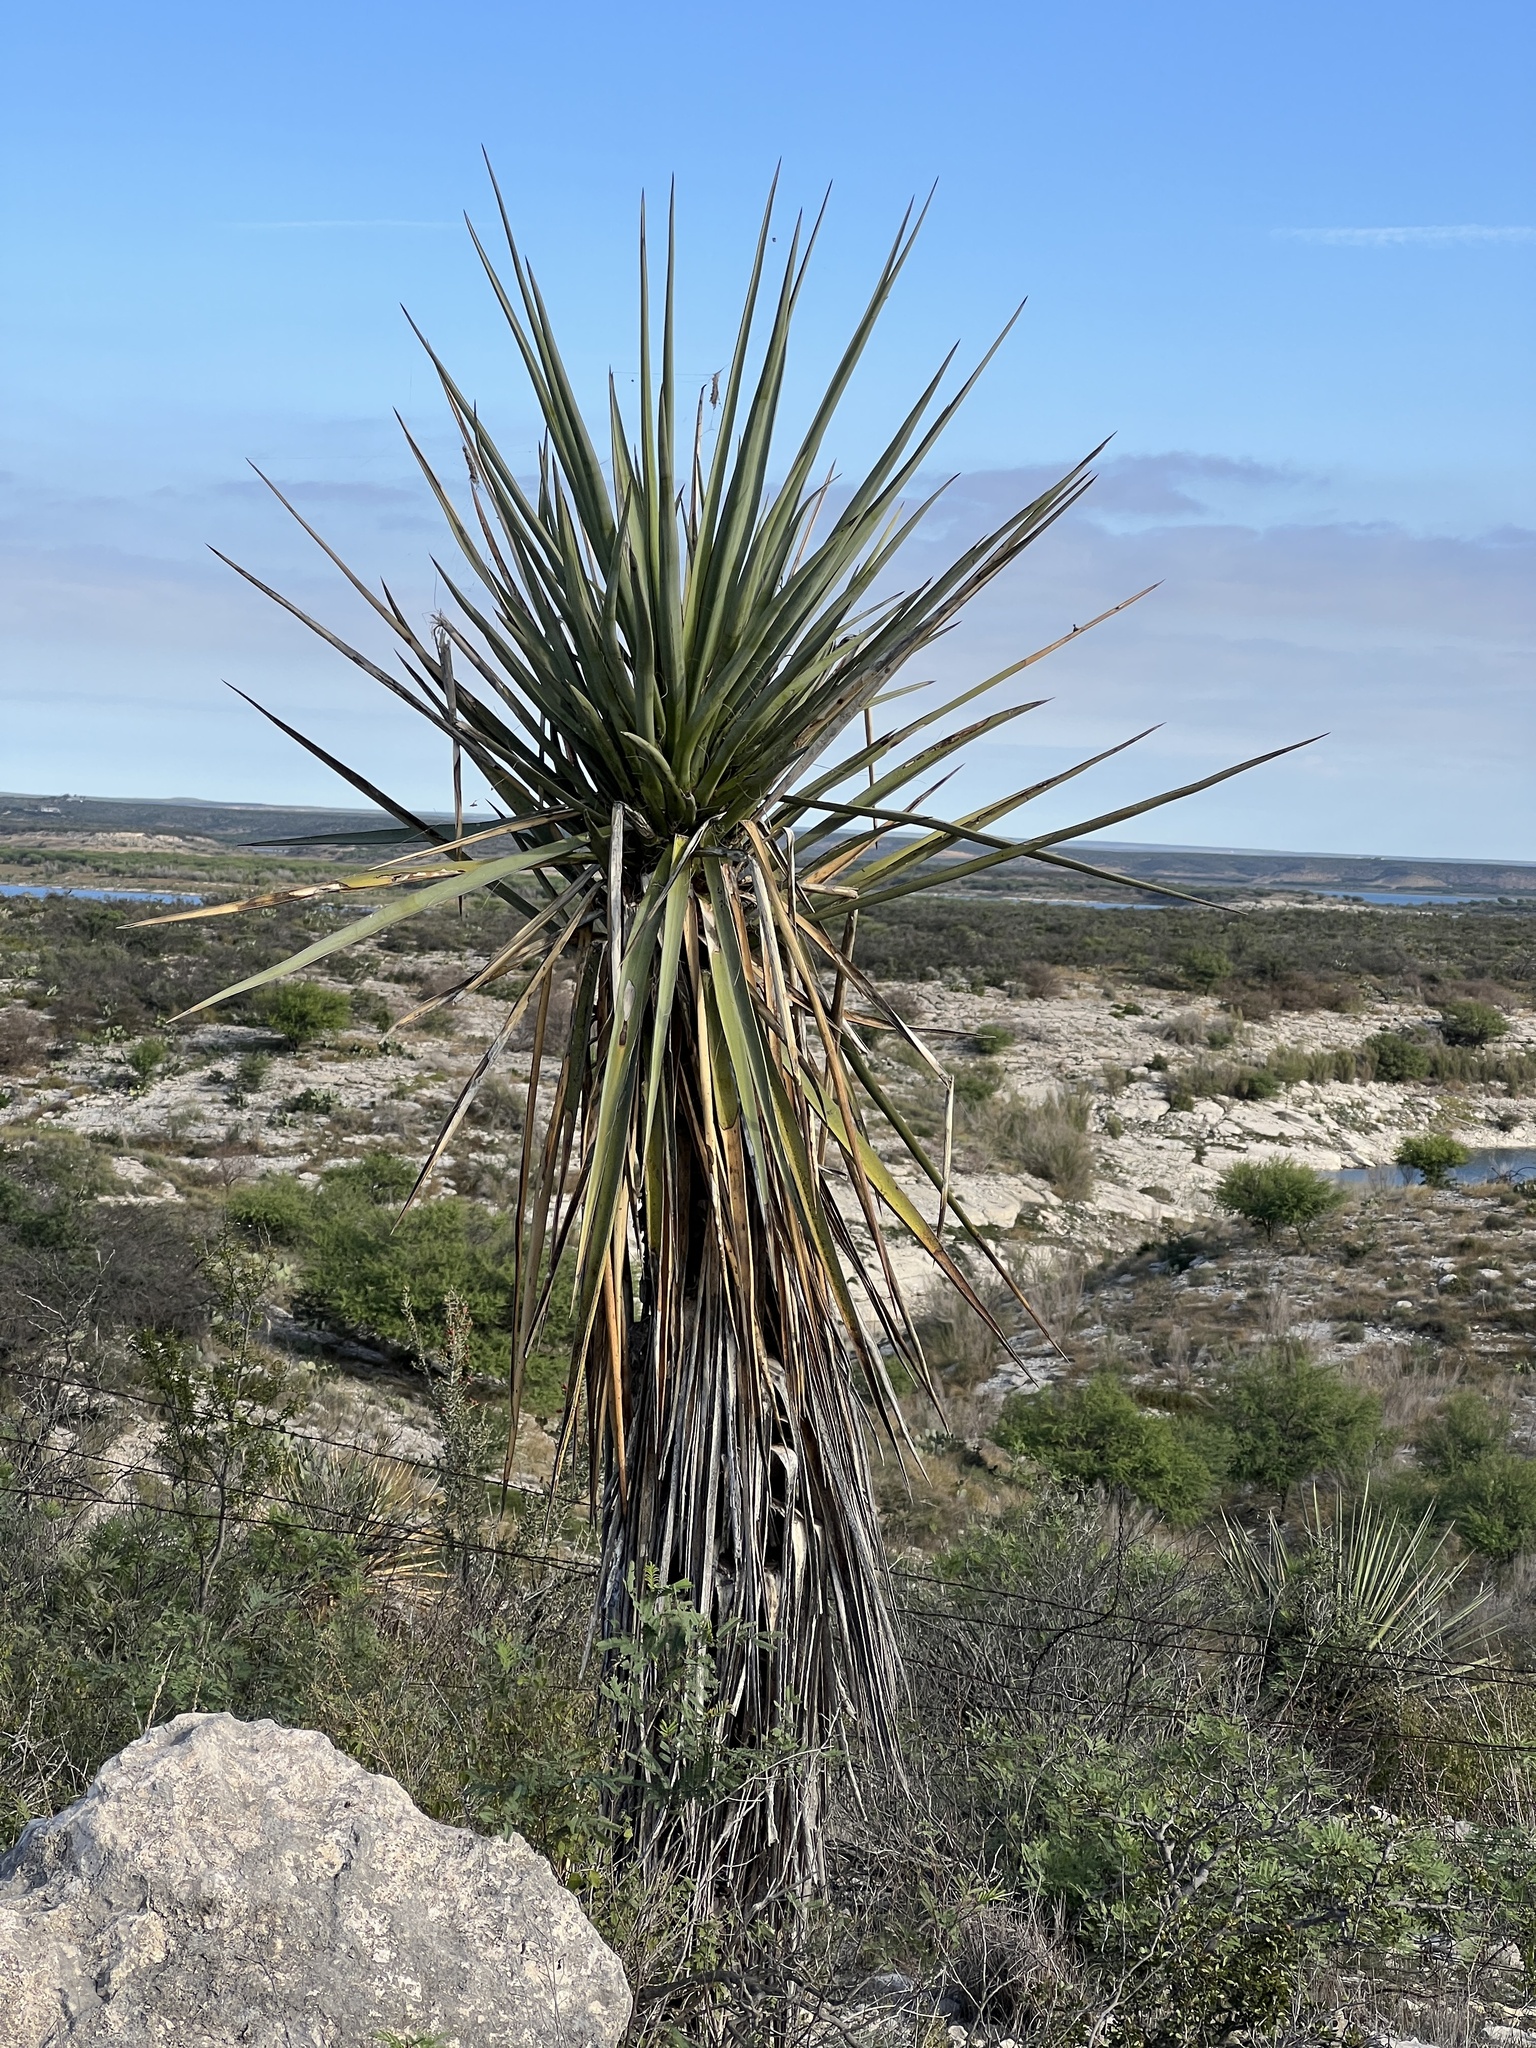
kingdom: Plantae
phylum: Tracheophyta
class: Liliopsida
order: Asparagales
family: Asparagaceae
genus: Yucca
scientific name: Yucca treculiana
